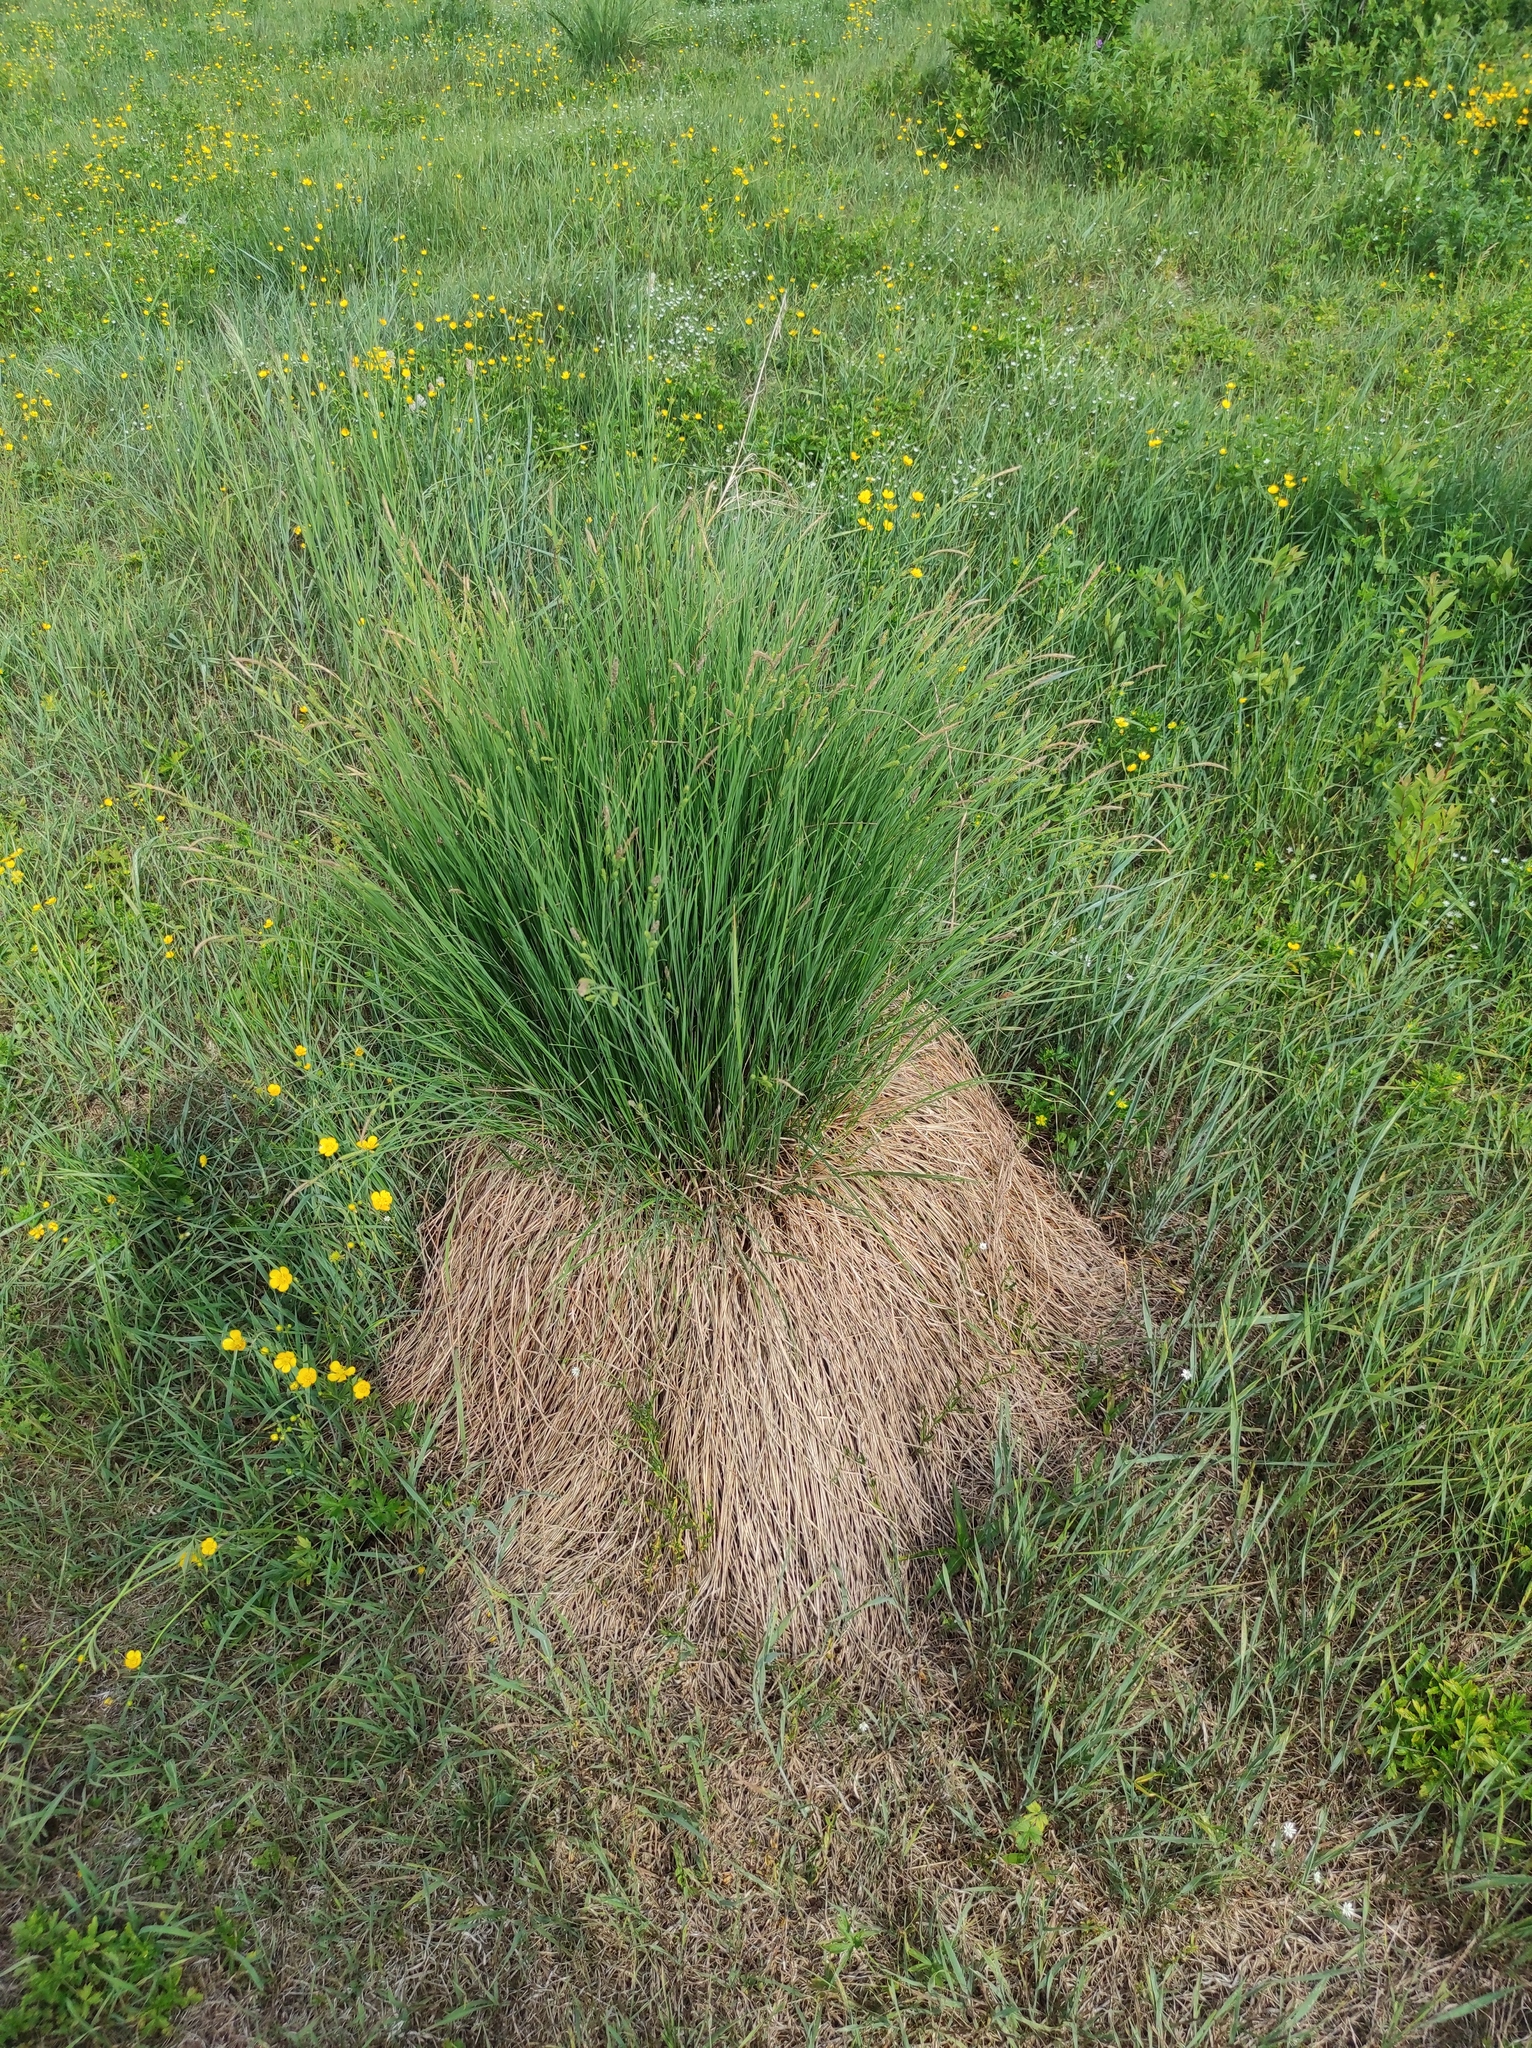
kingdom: Plantae
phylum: Tracheophyta
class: Liliopsida
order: Poales
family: Cyperaceae
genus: Carex
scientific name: Carex cespitosa
